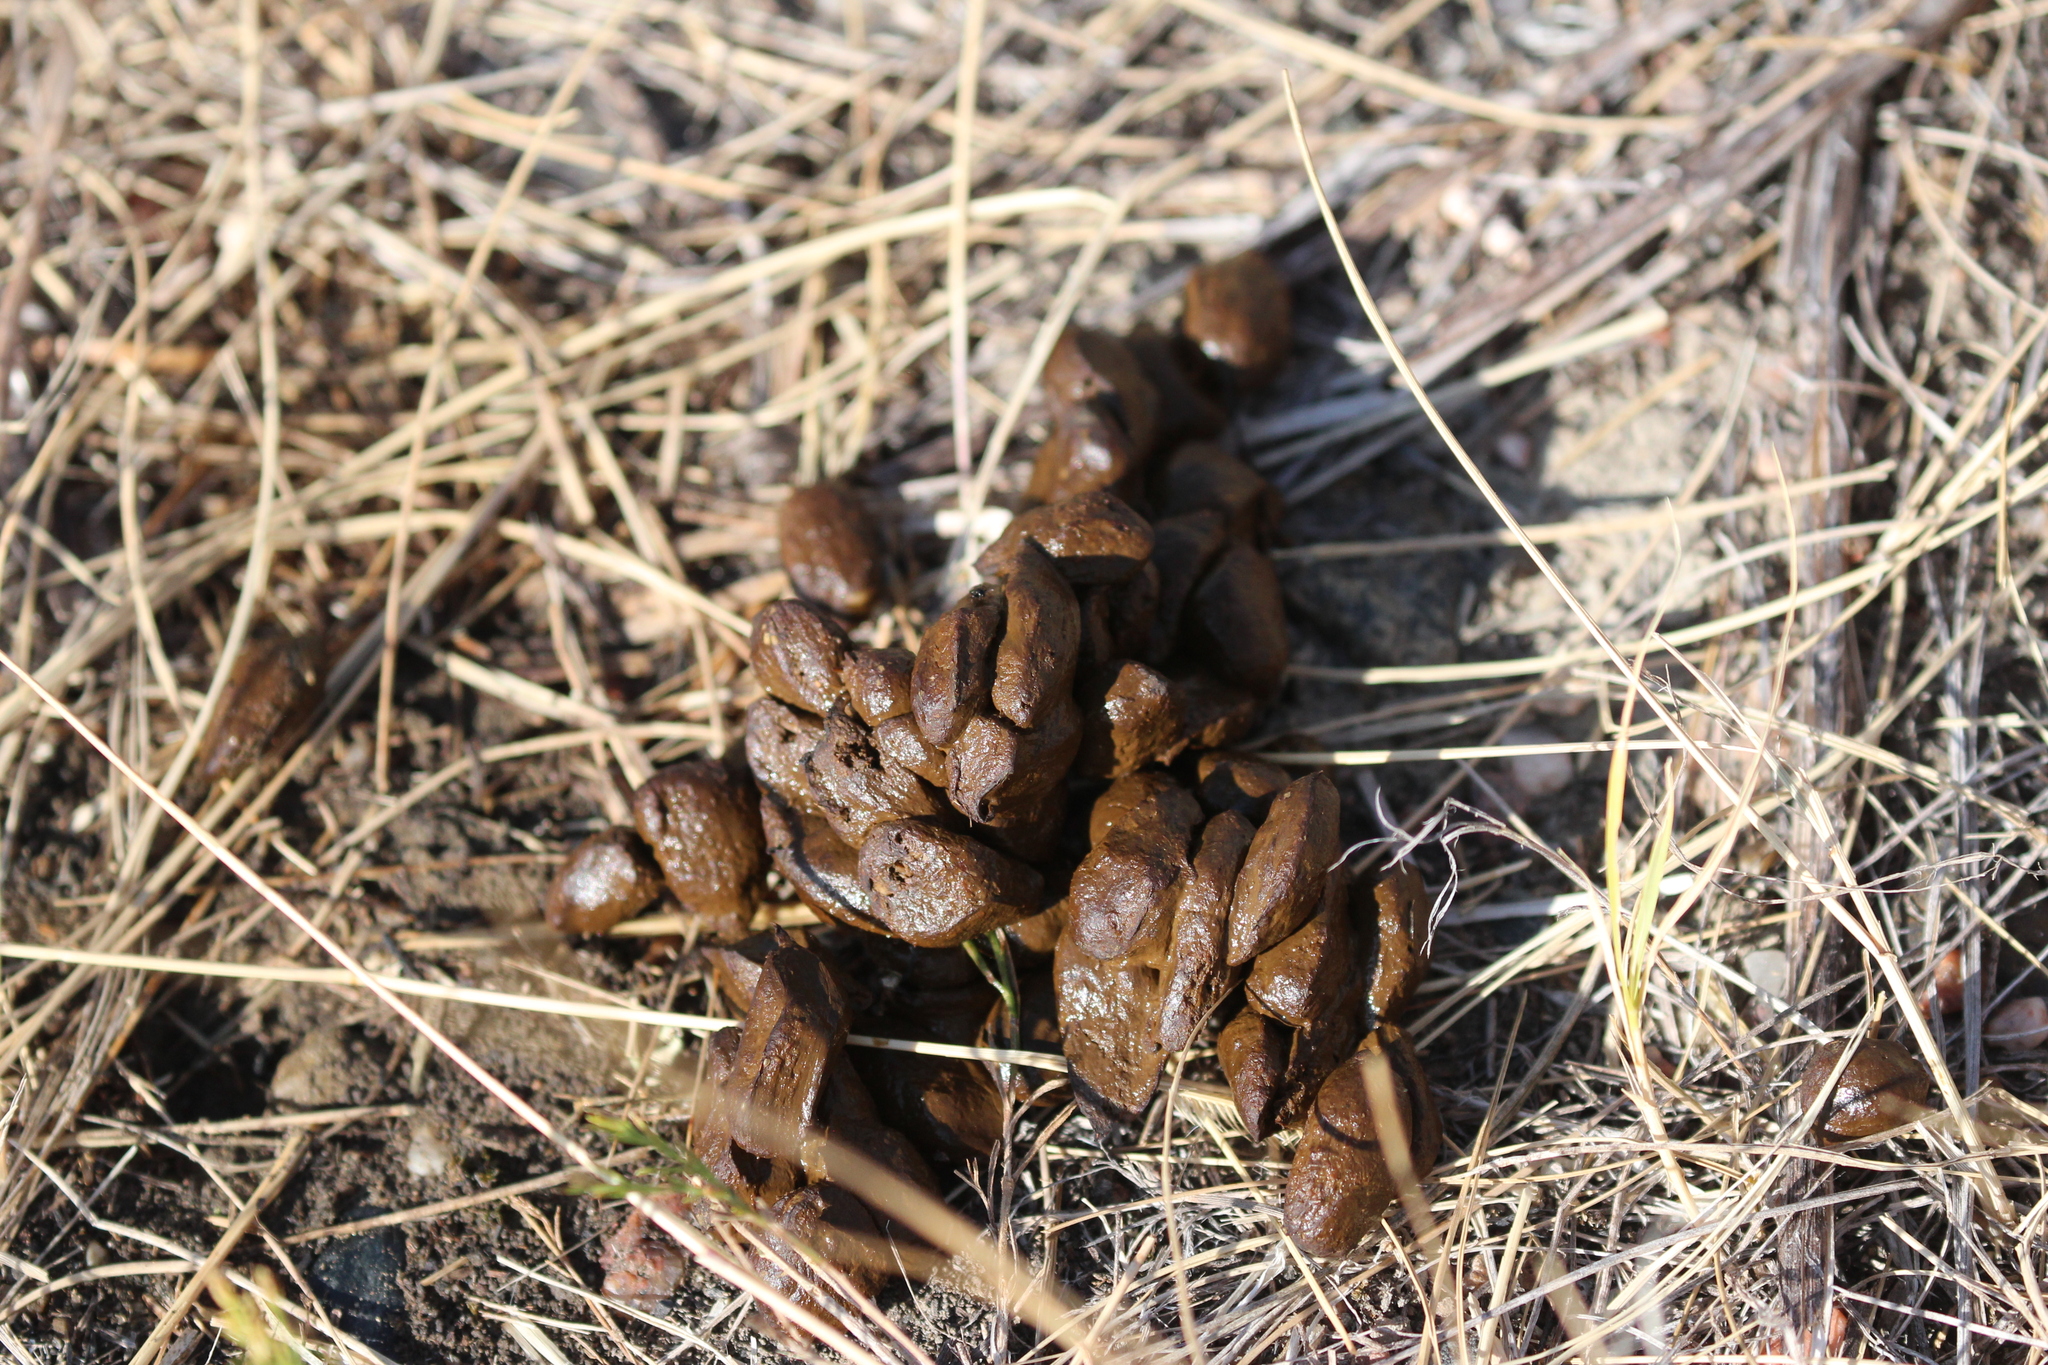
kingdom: Animalia
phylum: Chordata
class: Mammalia
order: Artiodactyla
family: Antilocapridae
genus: Antilocapra
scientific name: Antilocapra americana
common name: Pronghorn
